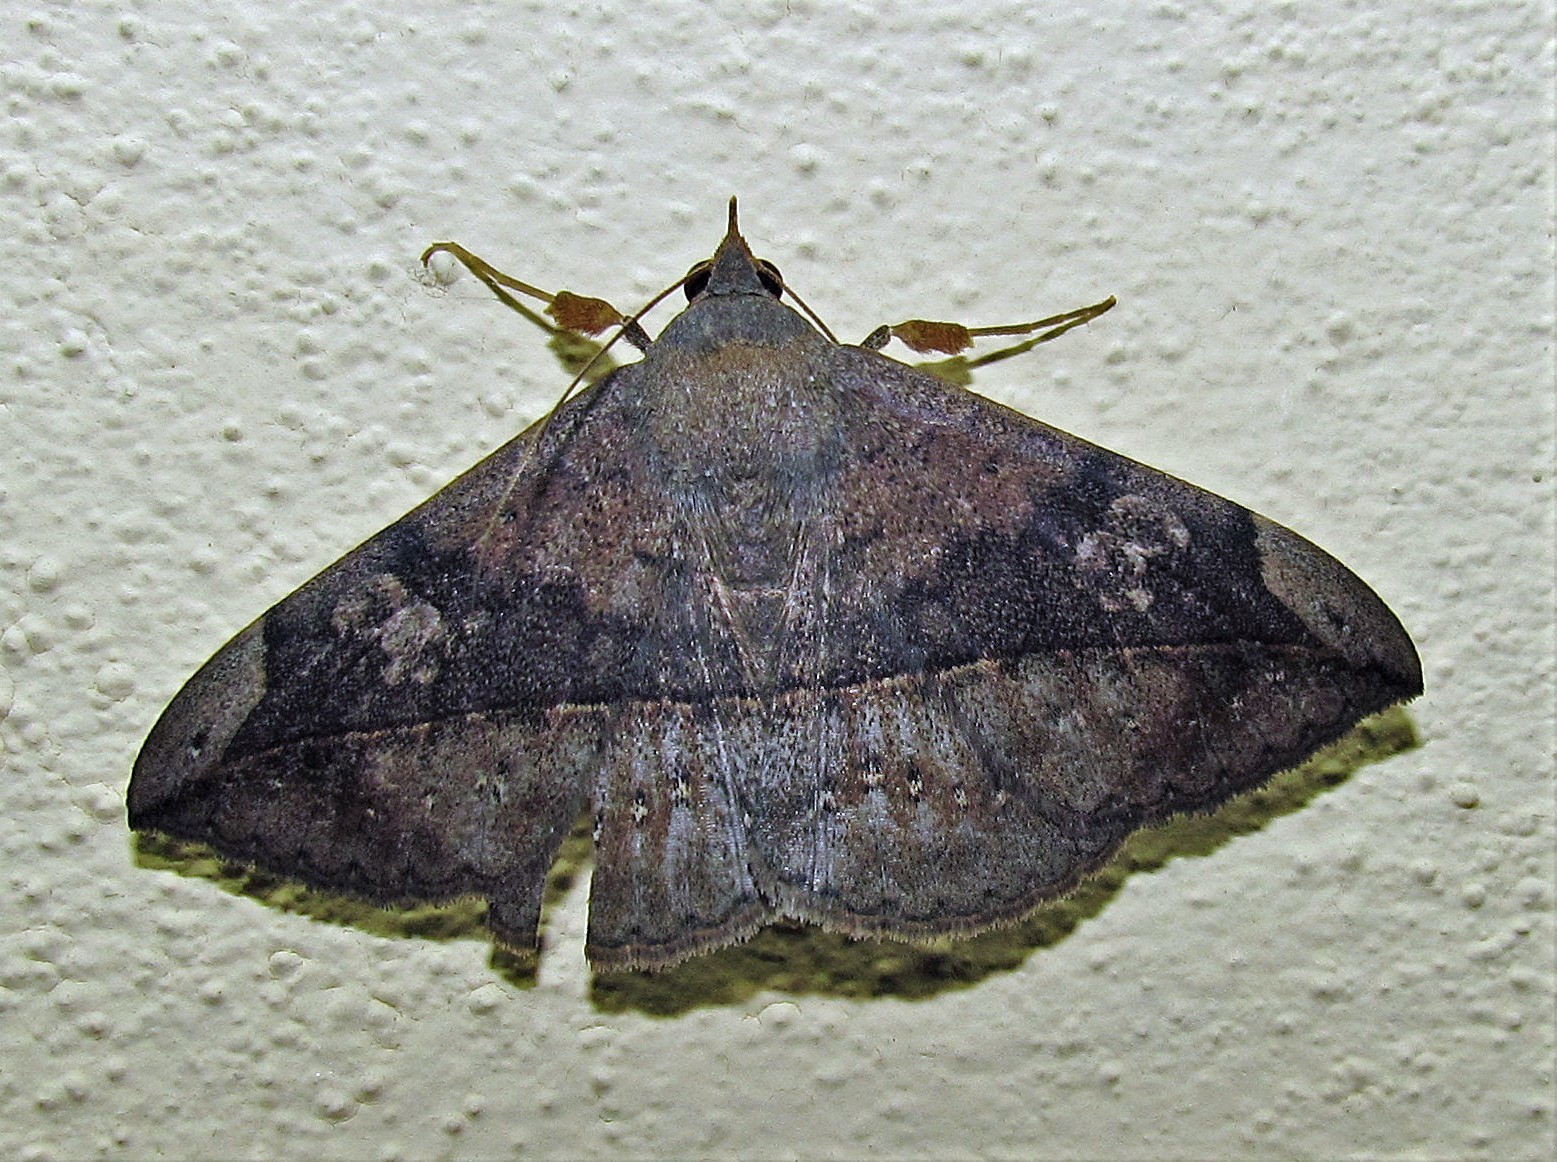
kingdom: Animalia
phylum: Arthropoda
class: Insecta
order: Lepidoptera
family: Erebidae
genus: Anticarsia
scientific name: Anticarsia gemmatalis
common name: Cutworm moth
